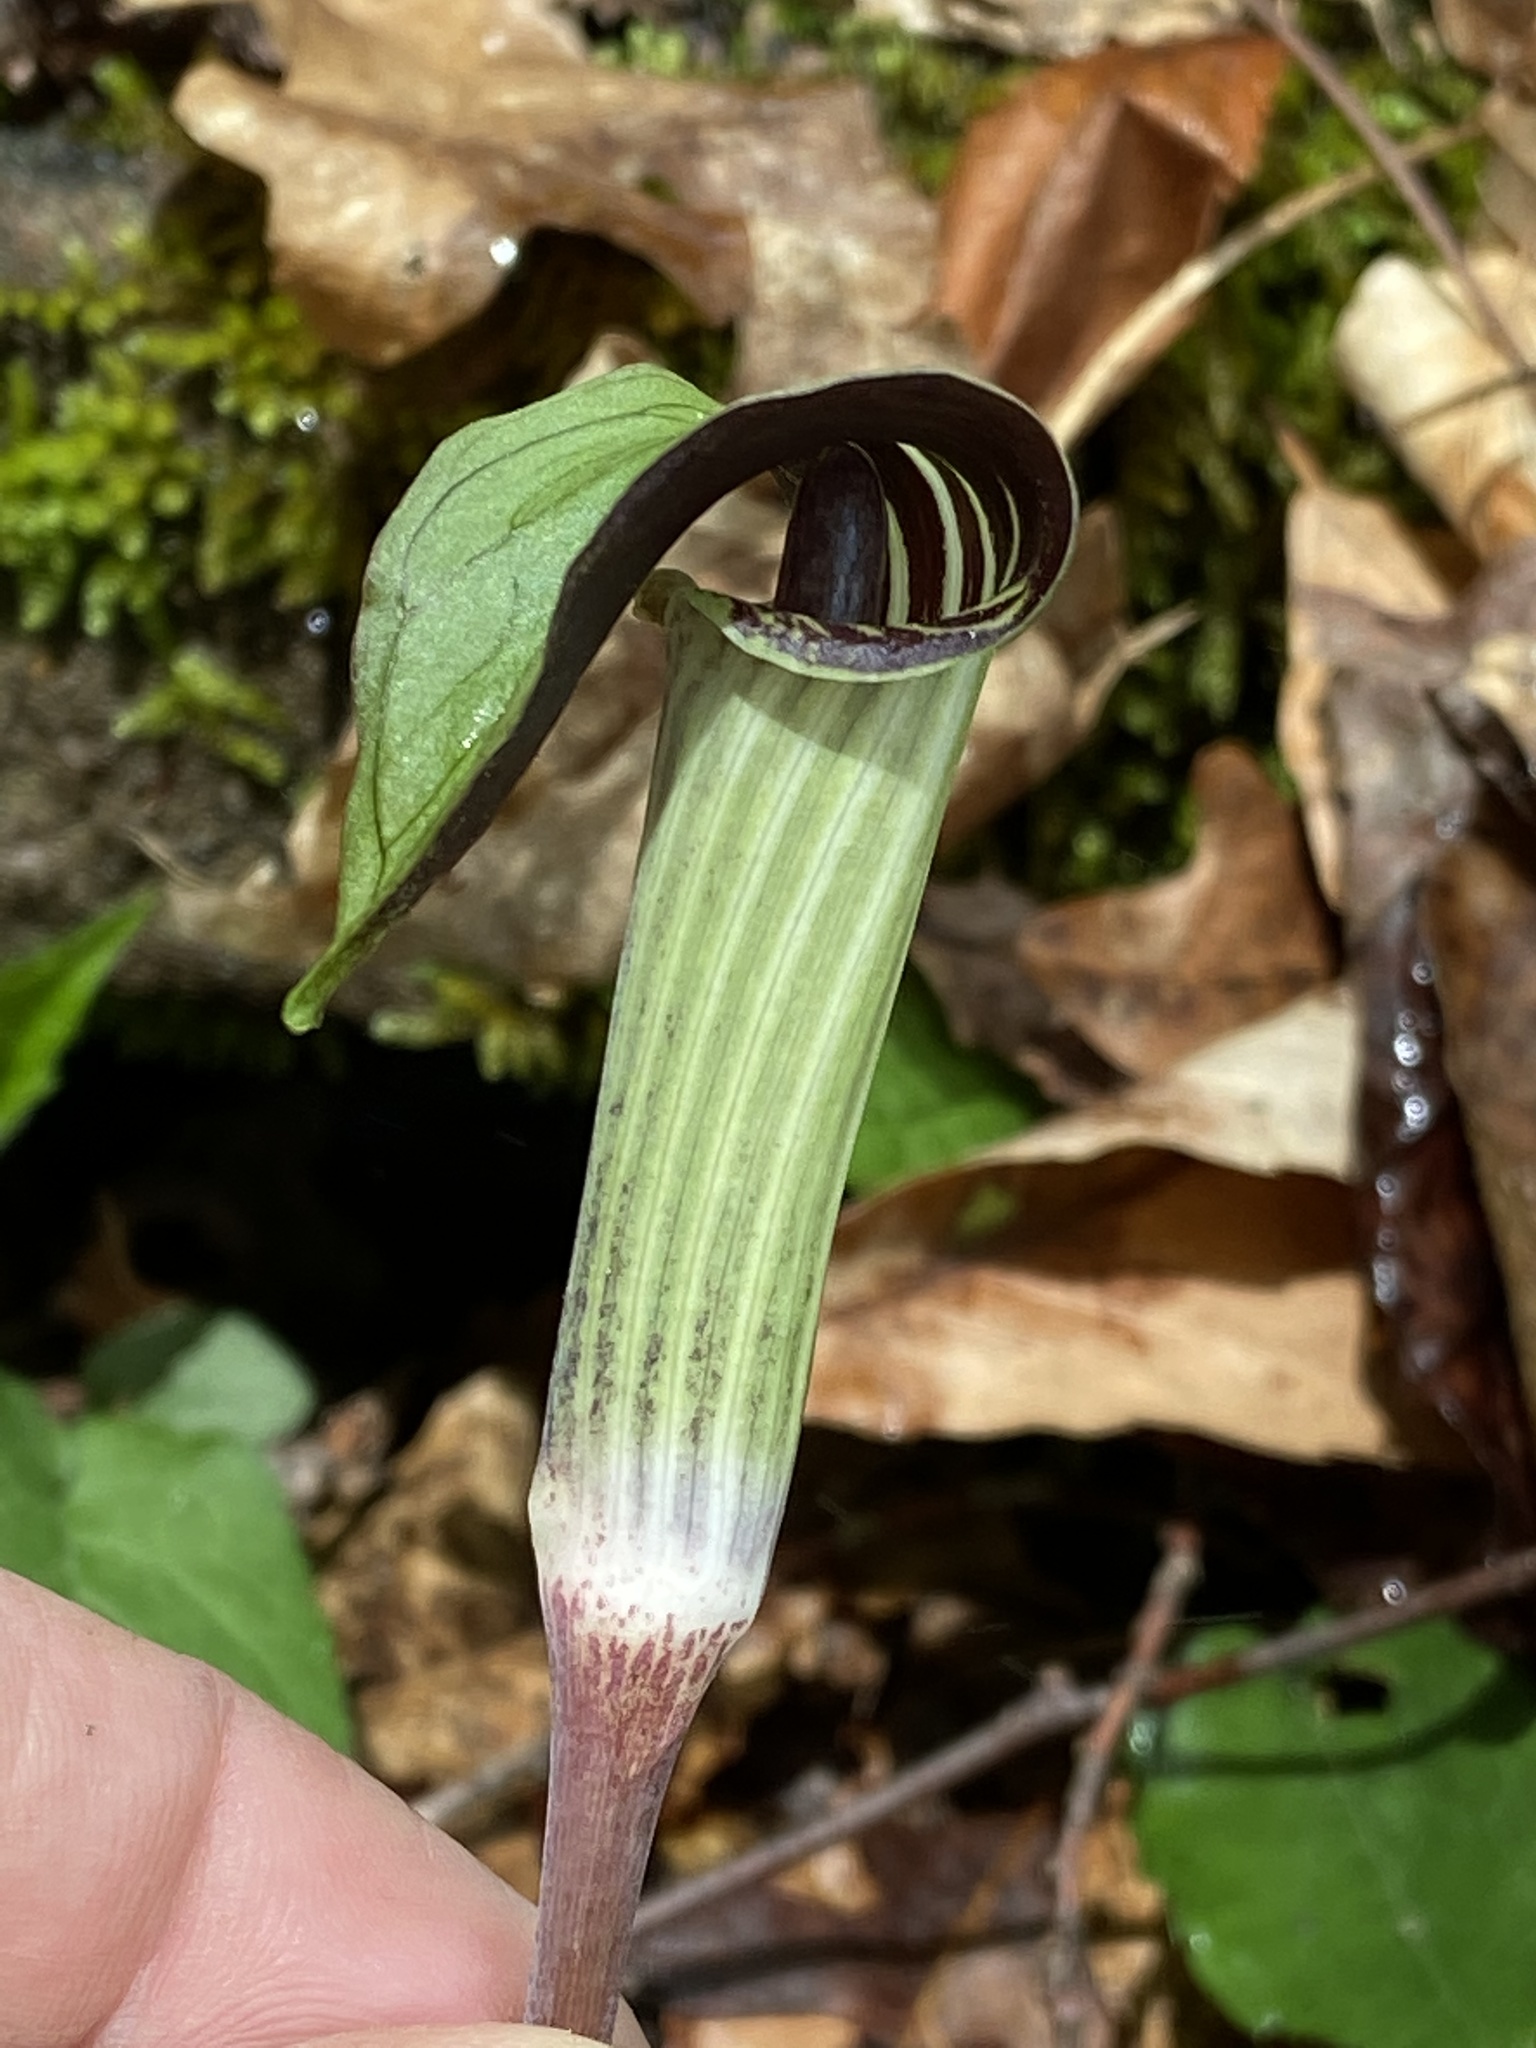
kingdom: Plantae
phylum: Tracheophyta
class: Liliopsida
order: Alismatales
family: Araceae
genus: Arisaema
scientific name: Arisaema triphyllum
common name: Jack-in-the-pulpit
